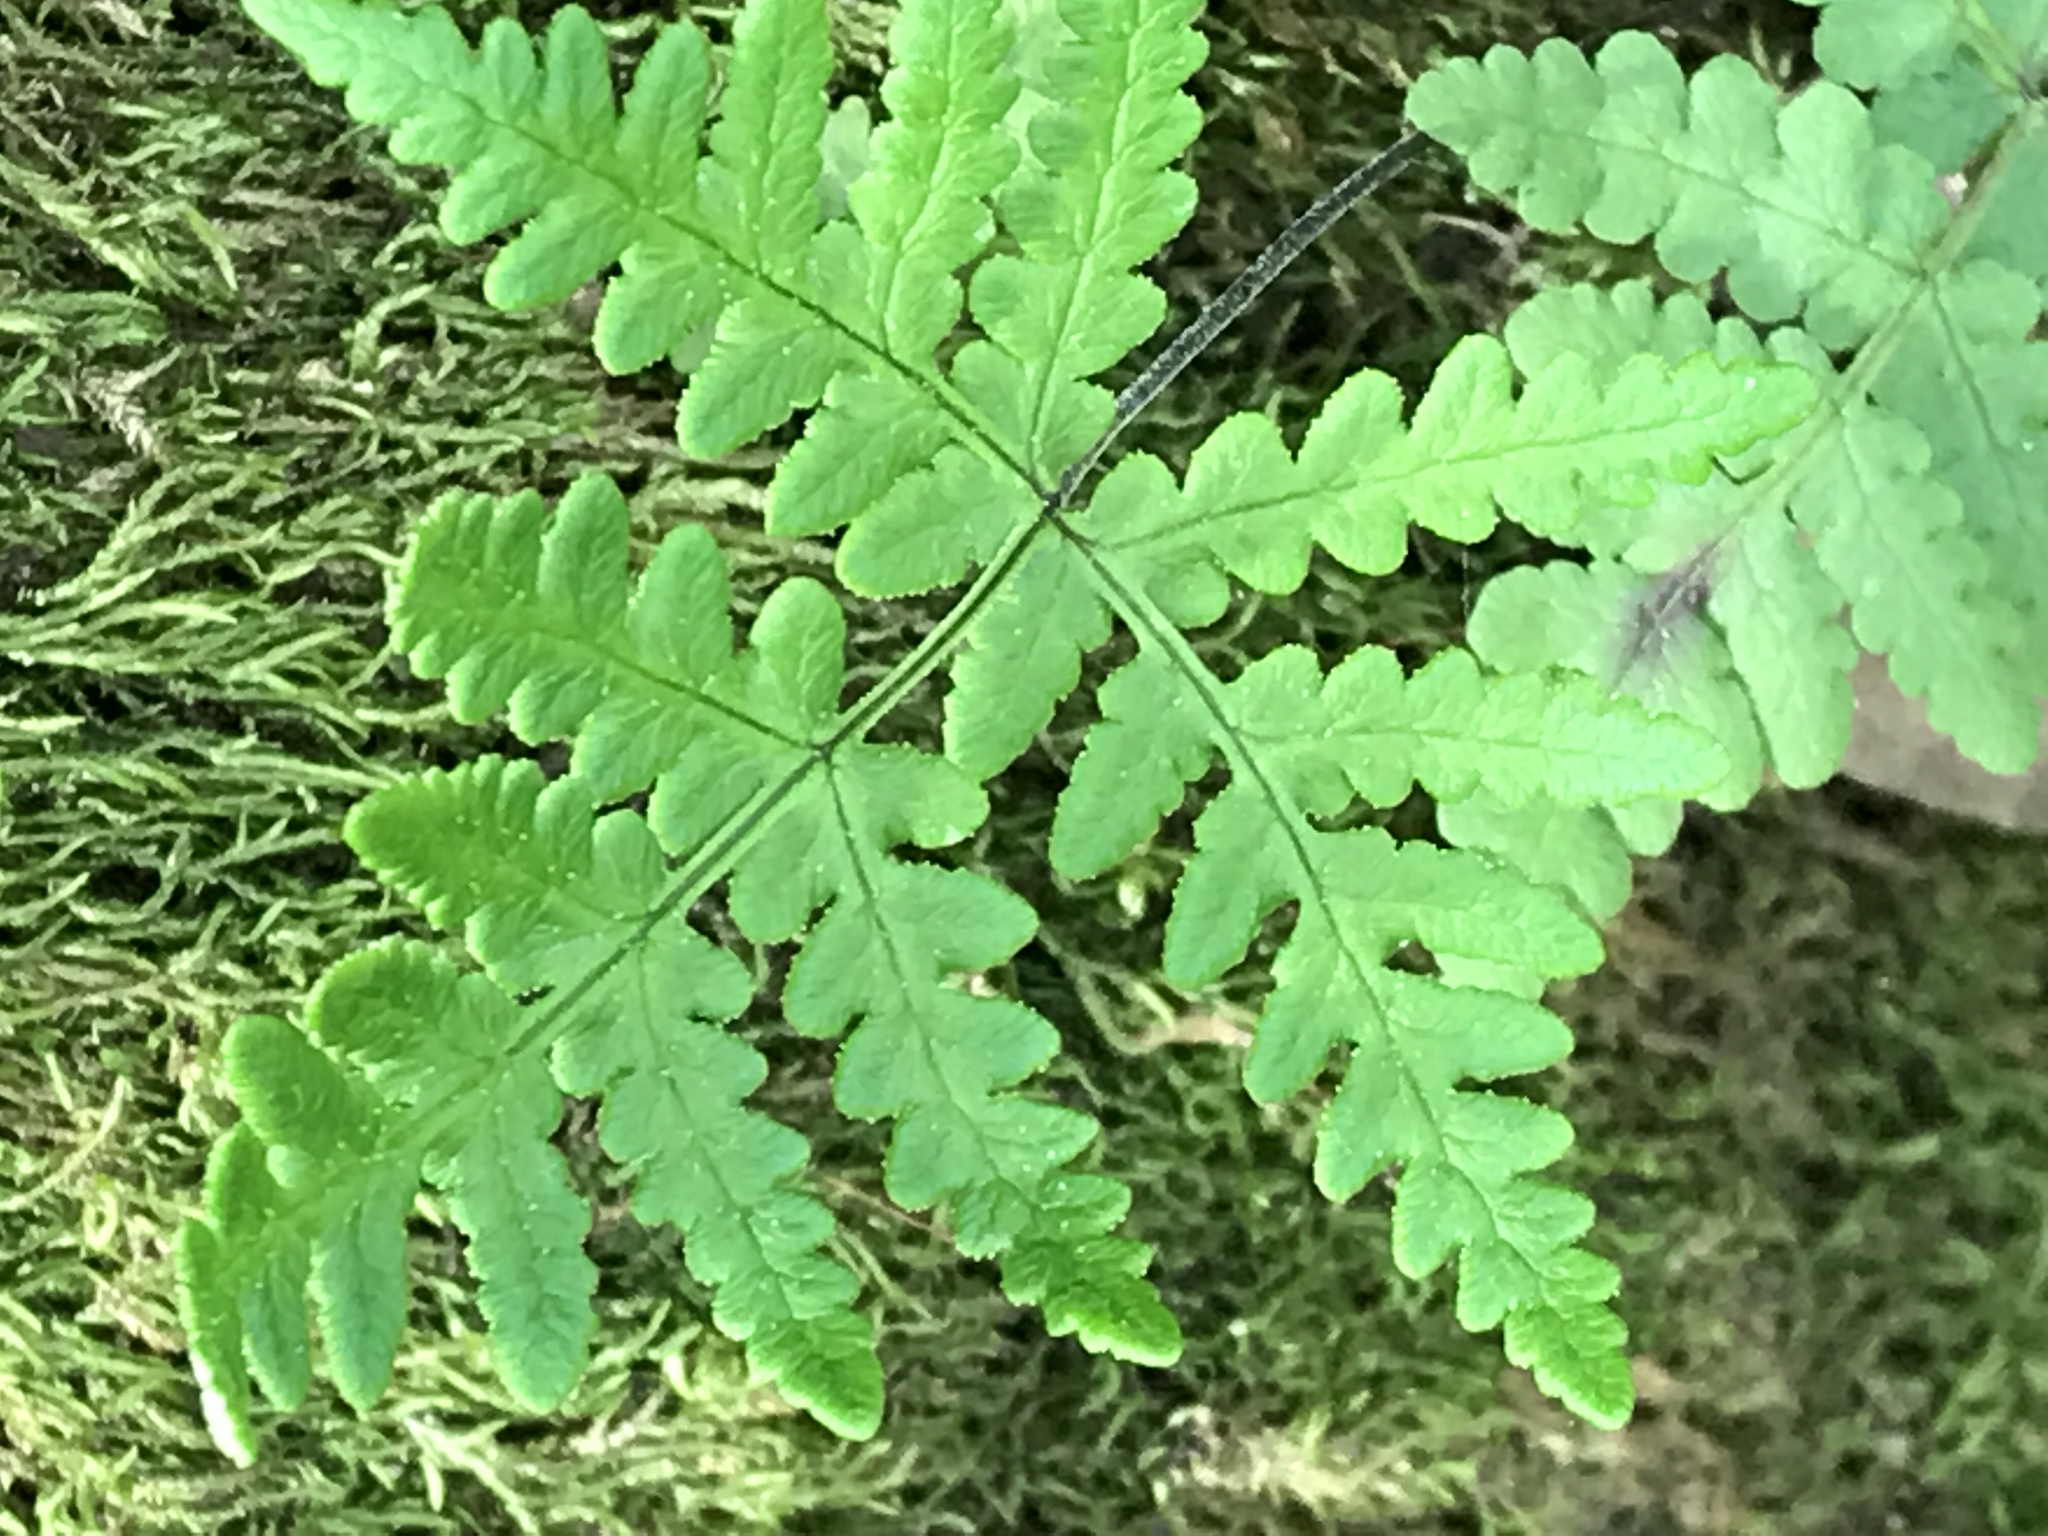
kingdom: Plantae
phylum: Tracheophyta
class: Polypodiopsida
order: Polypodiales
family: Pteridaceae
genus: Pentagramma
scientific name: Pentagramma triangularis
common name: Gold fern
